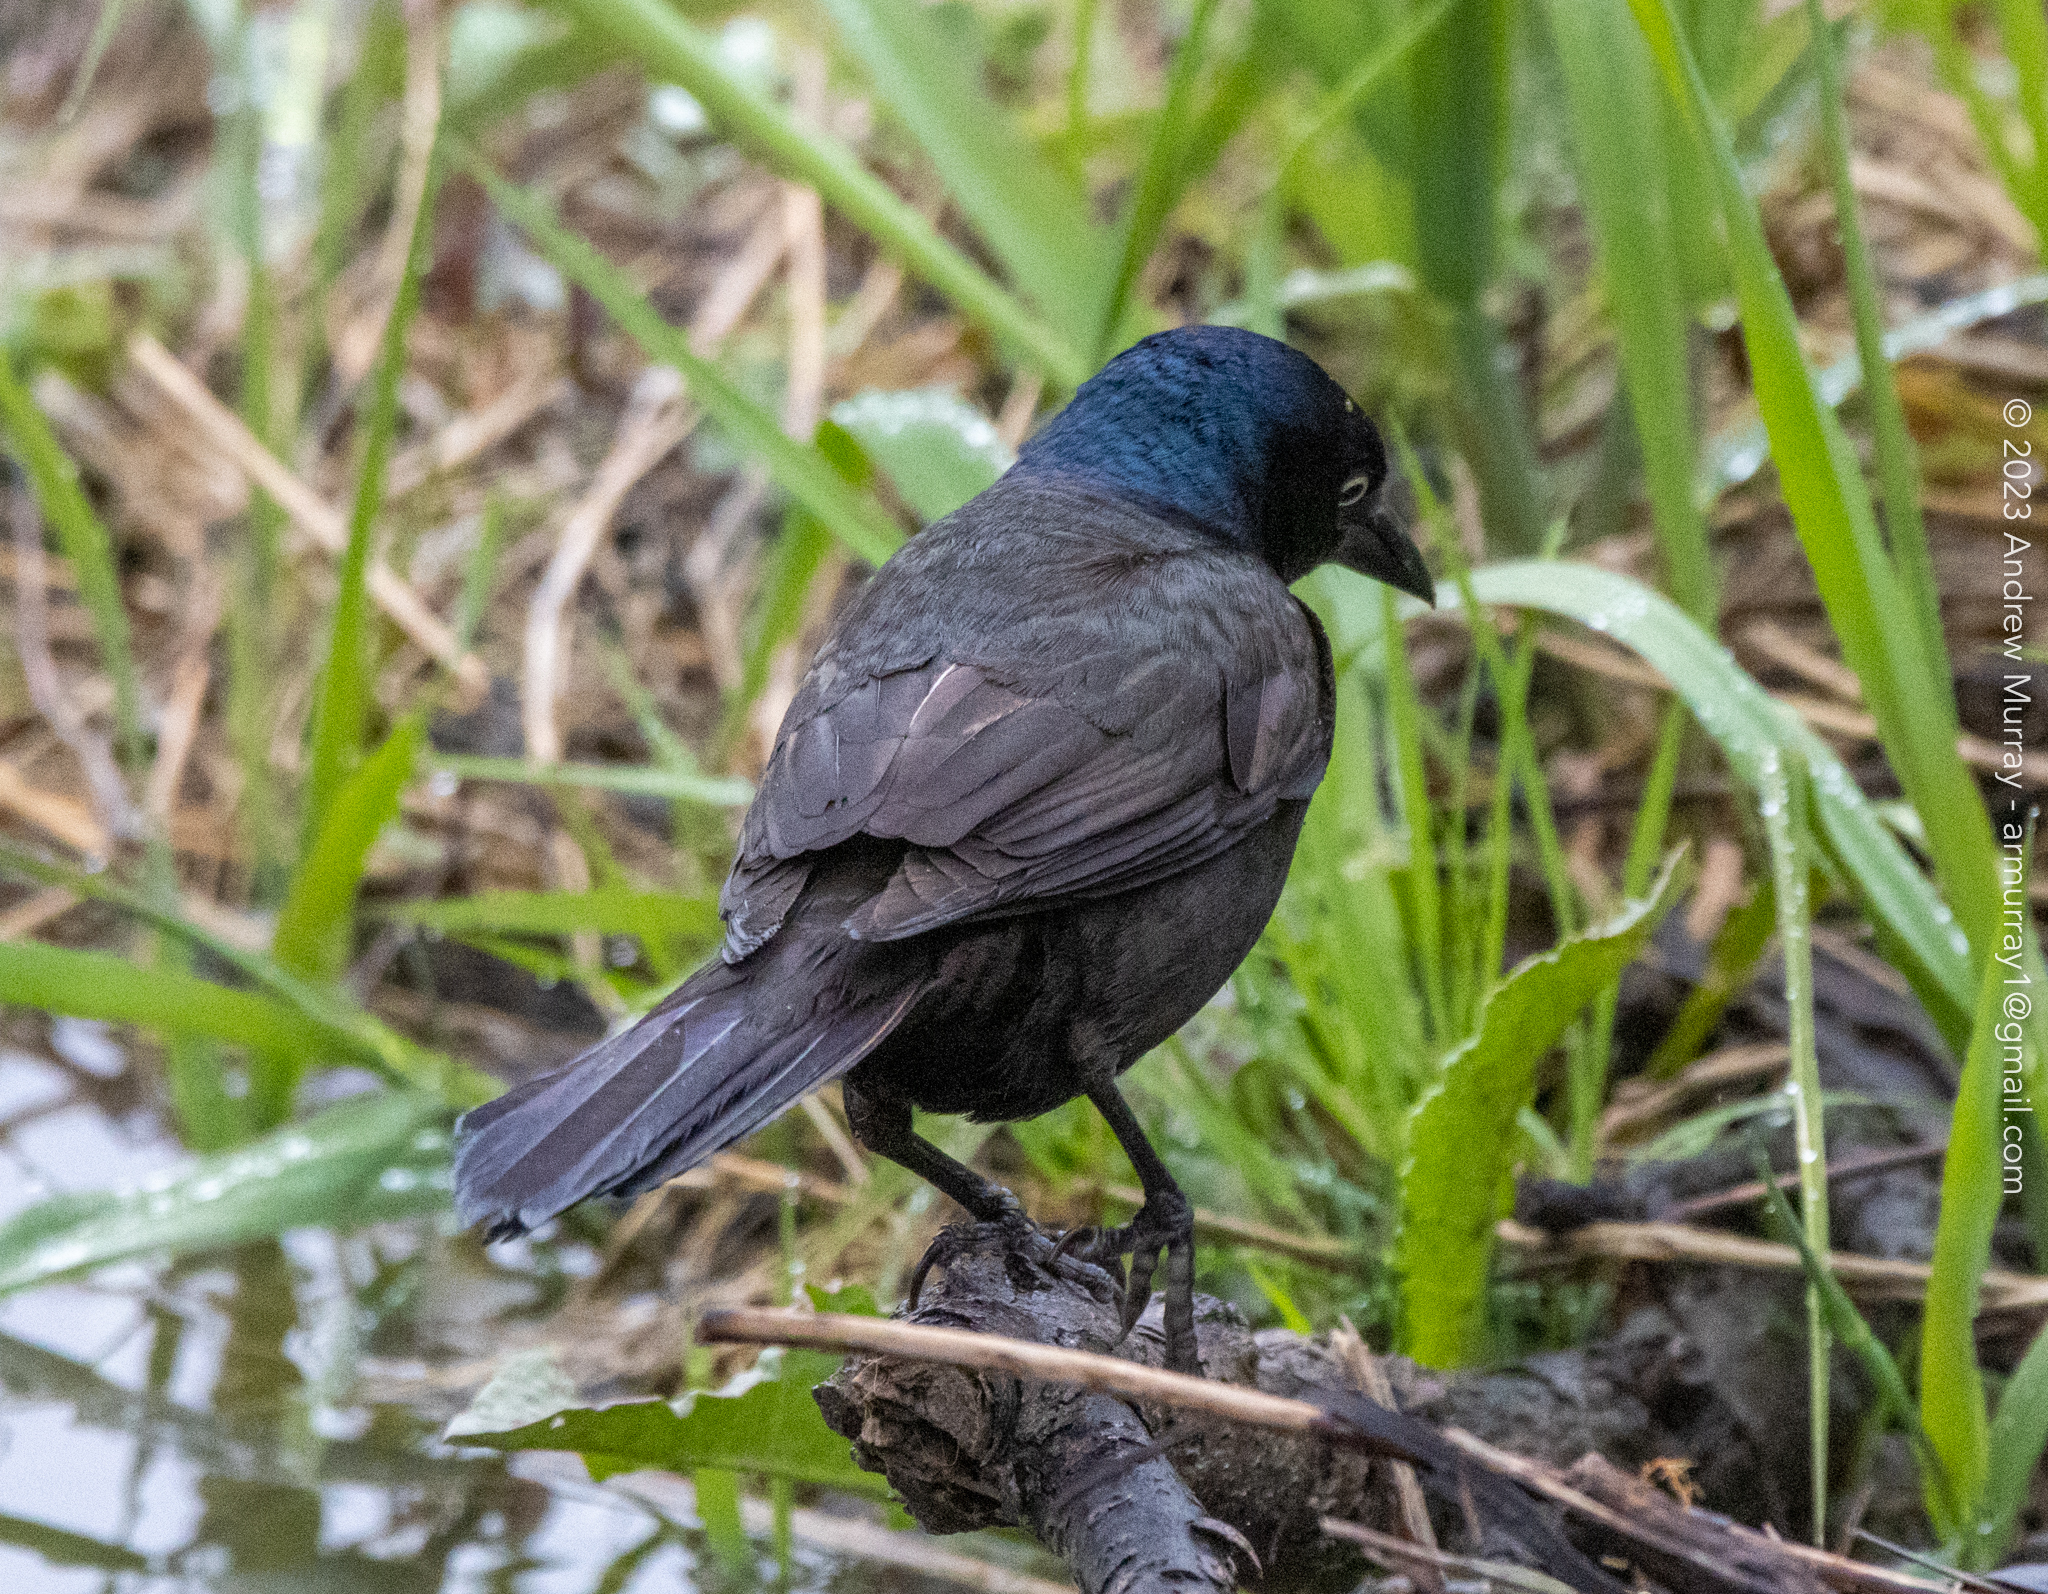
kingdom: Animalia
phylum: Chordata
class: Aves
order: Passeriformes
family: Icteridae
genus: Quiscalus
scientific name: Quiscalus quiscula
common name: Common grackle
